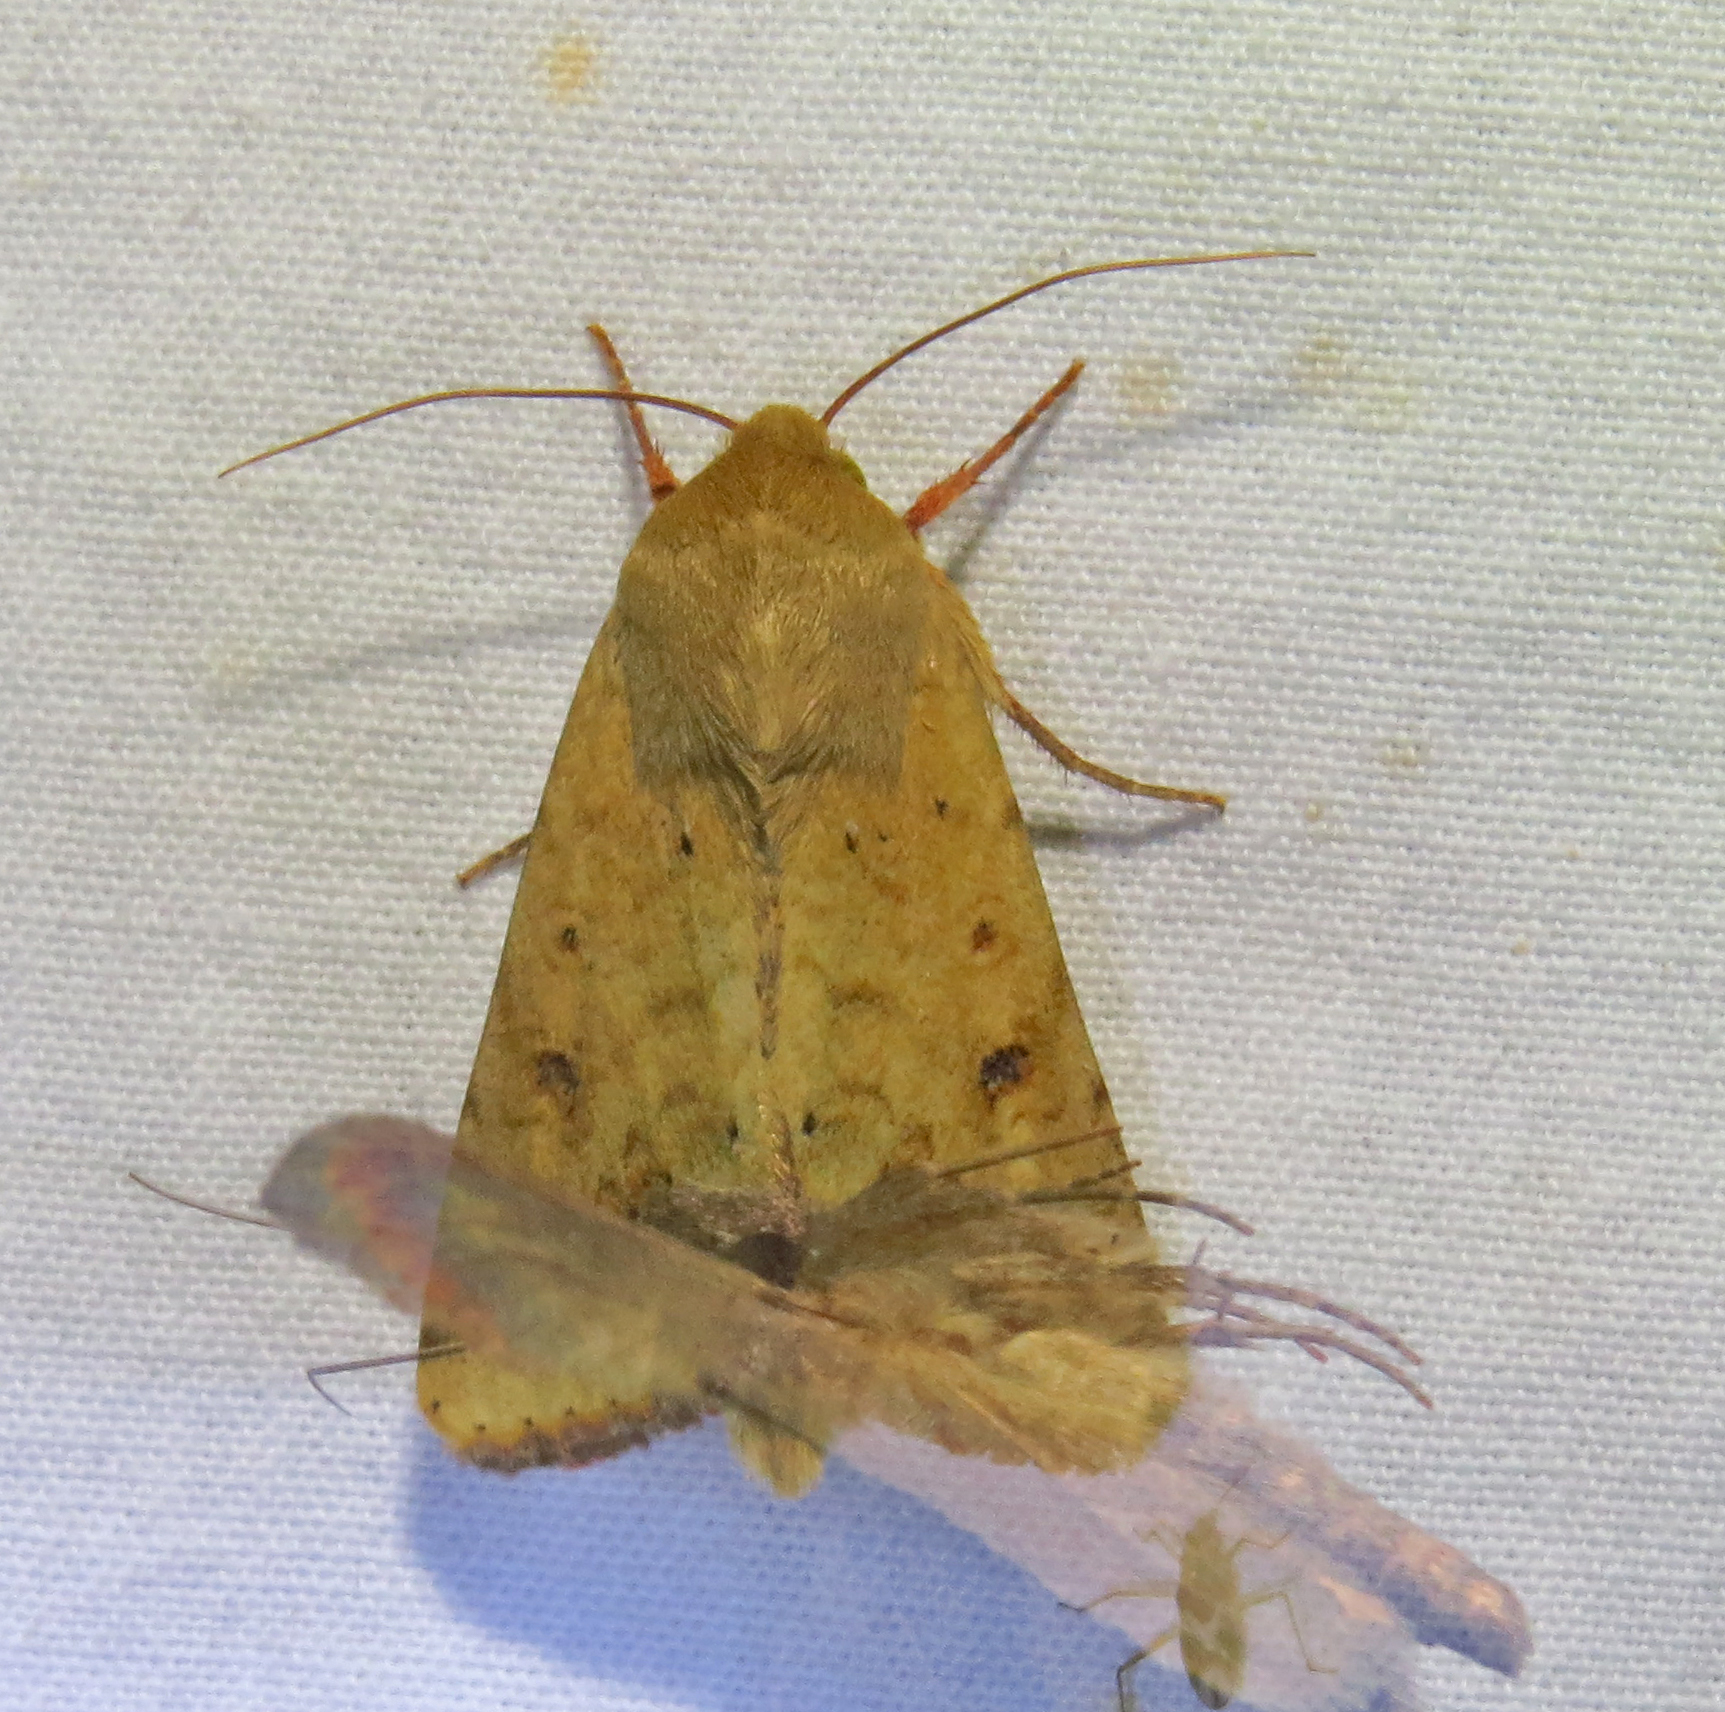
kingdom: Animalia
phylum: Arthropoda
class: Insecta
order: Lepidoptera
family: Noctuidae
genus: Helicoverpa
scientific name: Helicoverpa zea
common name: Bollworm
